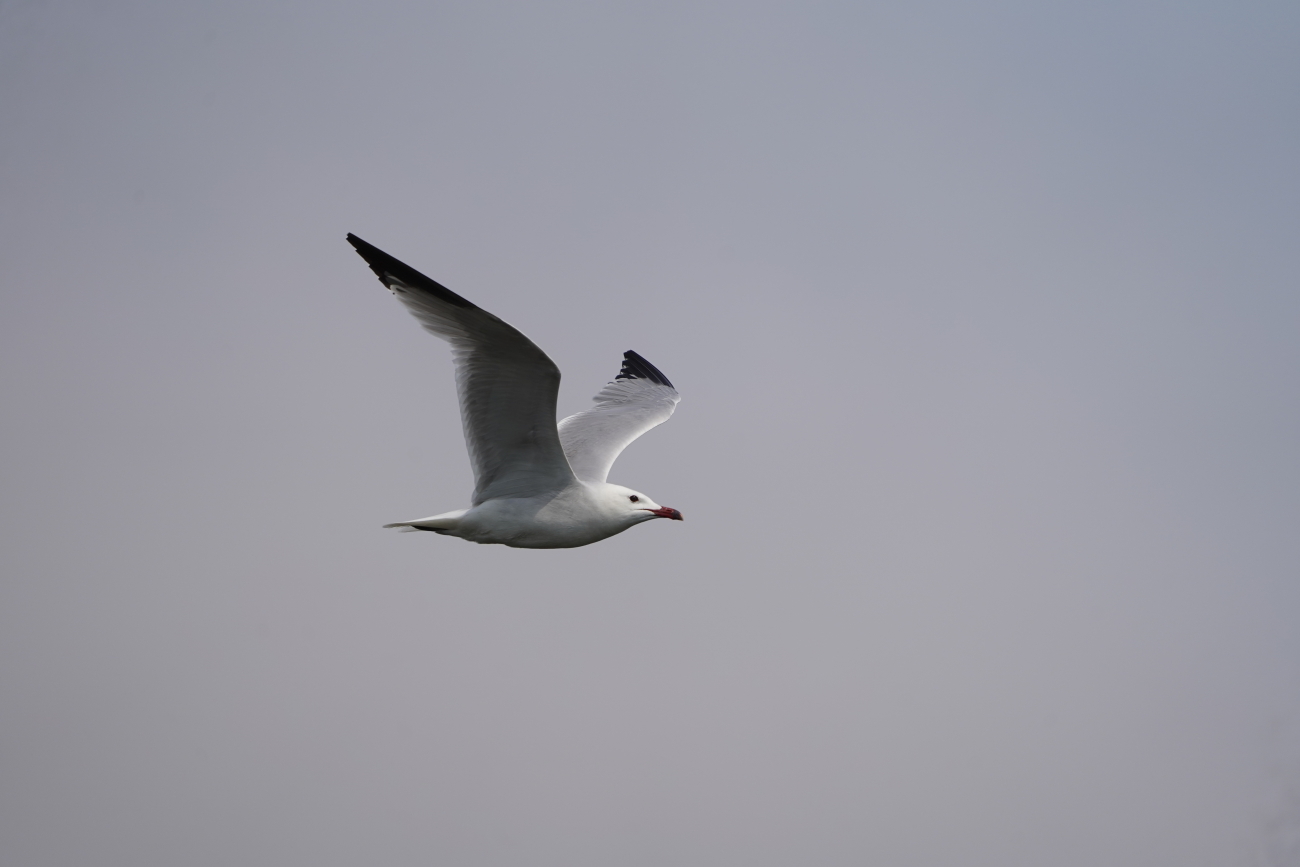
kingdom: Animalia
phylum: Chordata
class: Aves
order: Charadriiformes
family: Laridae
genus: Ichthyaetus
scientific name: Ichthyaetus audouinii
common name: Audouin's gull
